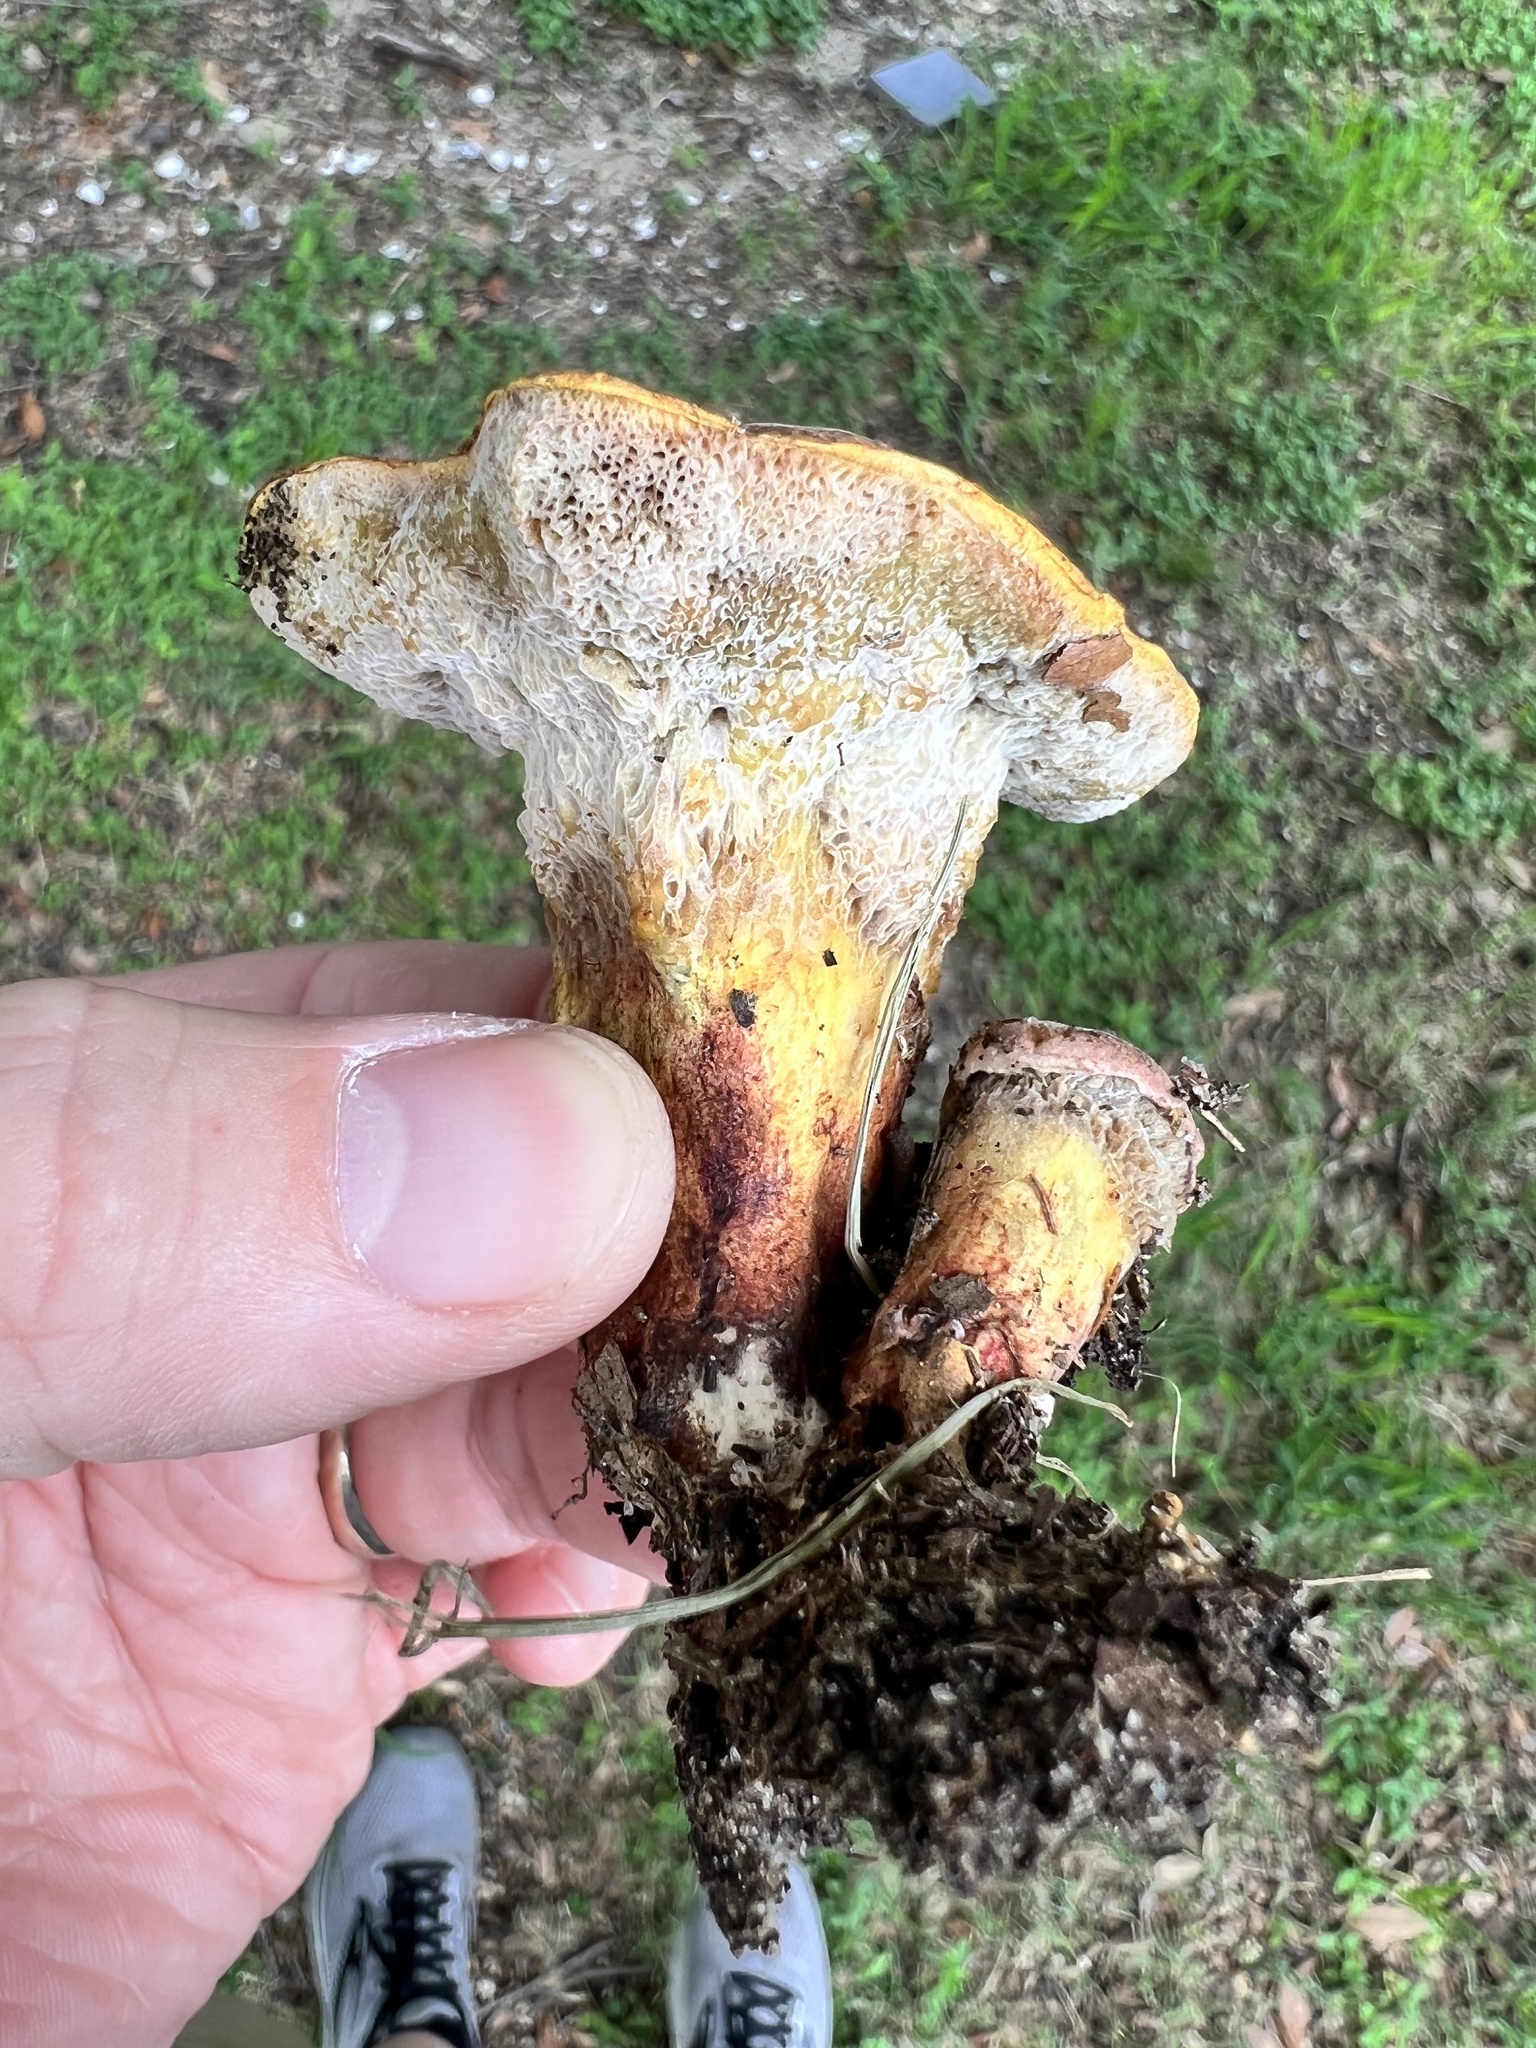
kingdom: Fungi
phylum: Ascomycota
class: Sordariomycetes
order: Hypocreales
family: Hypocreaceae
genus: Hypomyces
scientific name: Hypomyces chrysospermus
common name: Bolete mould
